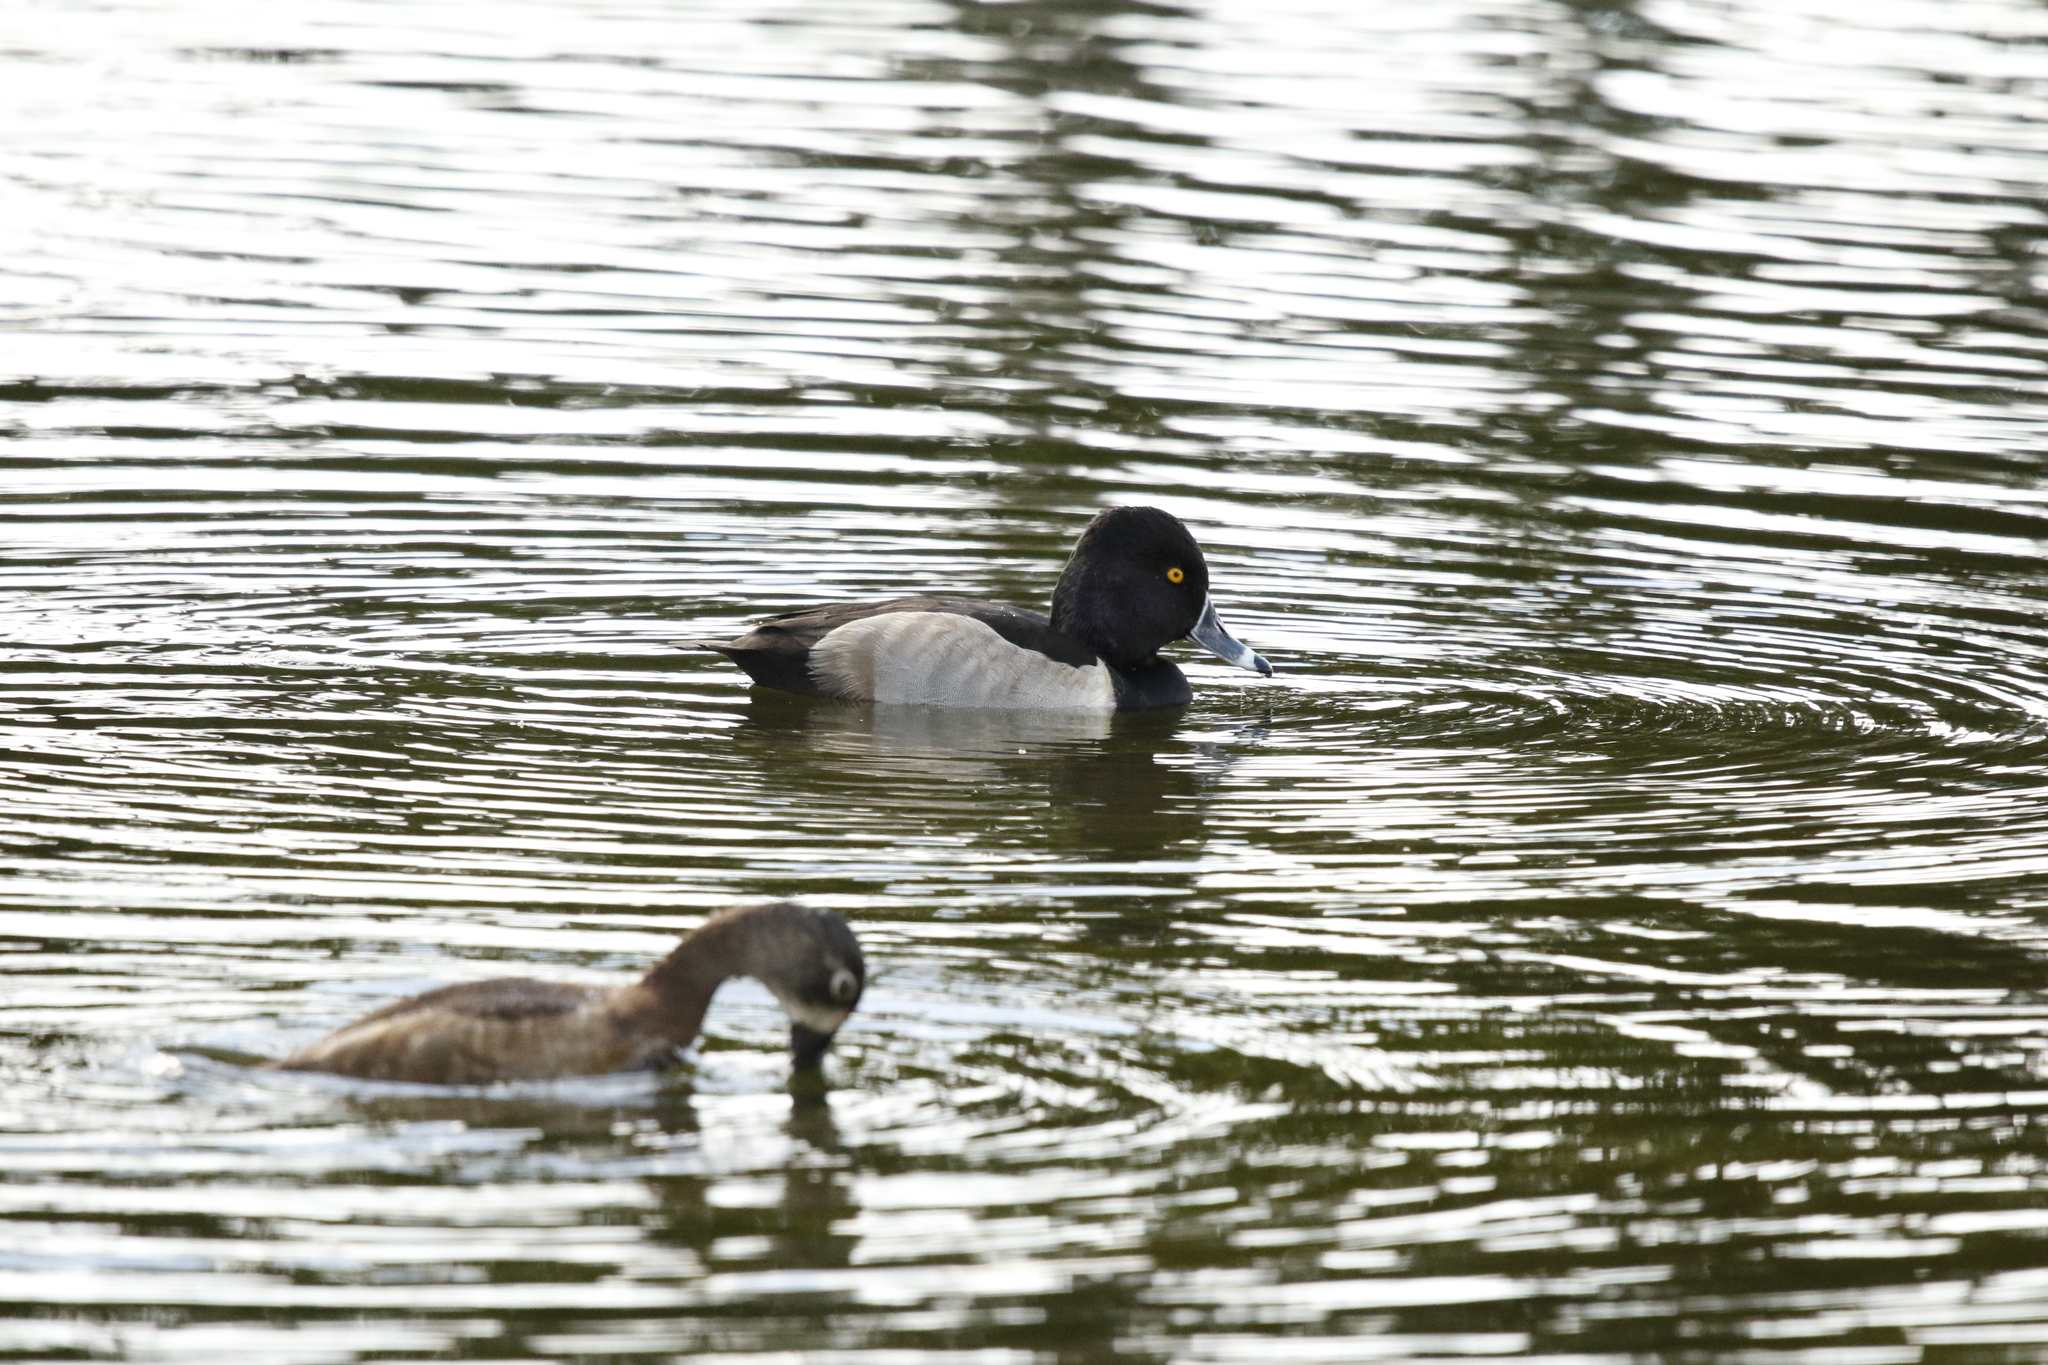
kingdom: Animalia
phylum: Chordata
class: Aves
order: Anseriformes
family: Anatidae
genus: Aythya
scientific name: Aythya collaris
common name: Ring-necked duck
